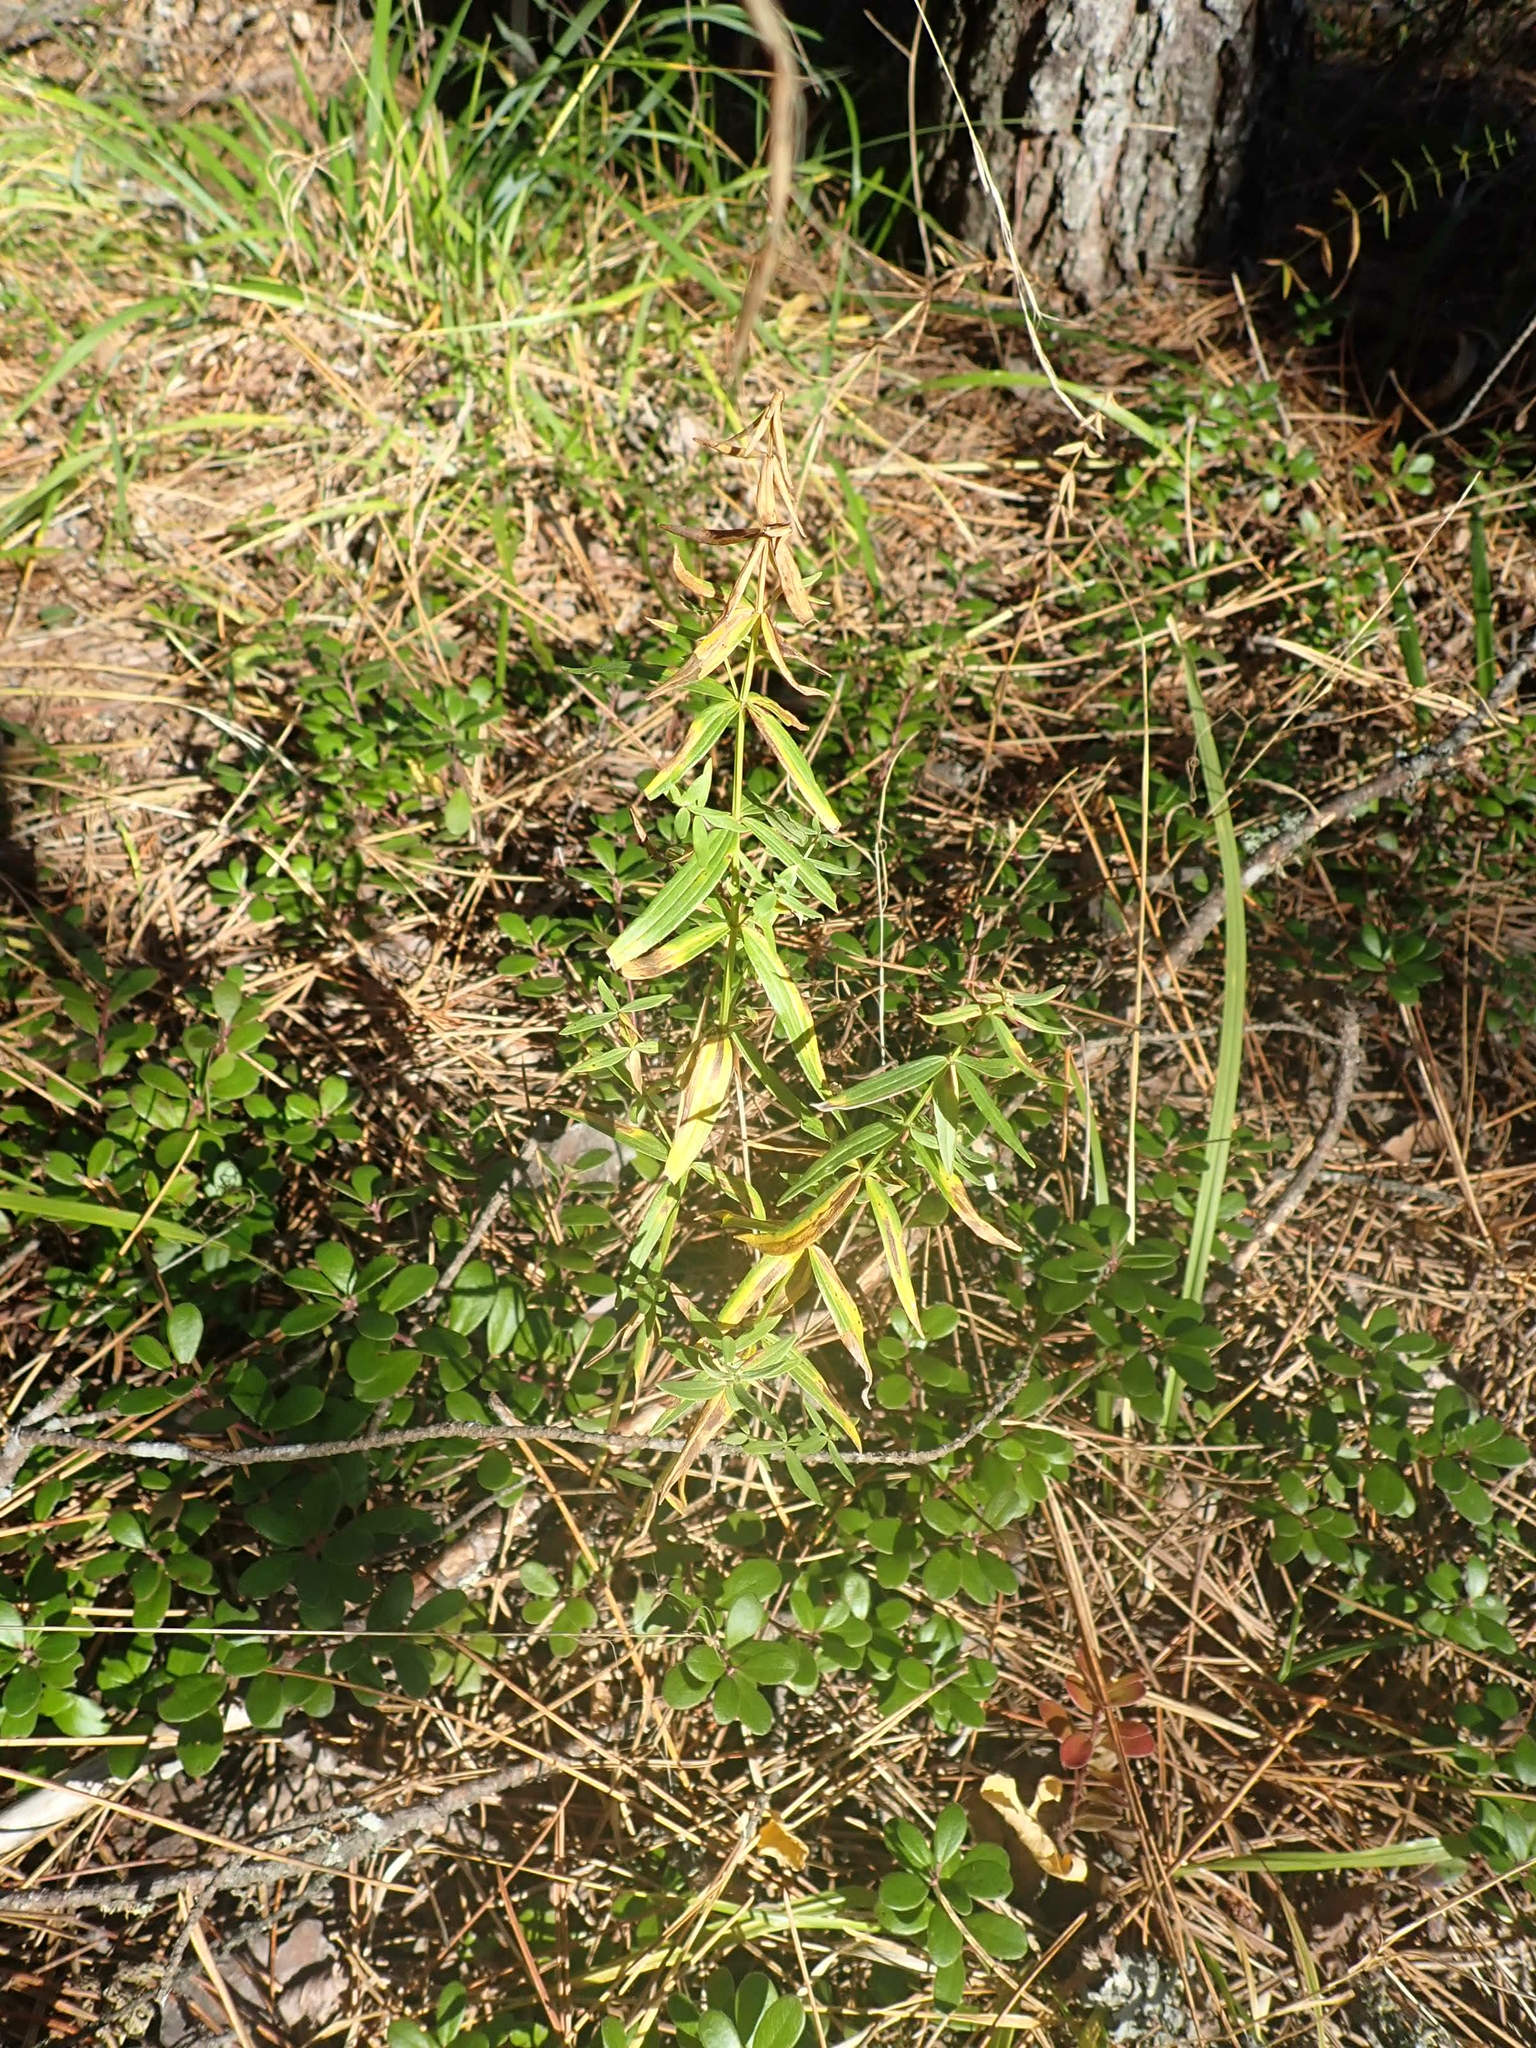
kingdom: Plantae
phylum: Tracheophyta
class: Magnoliopsida
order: Gentianales
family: Rubiaceae
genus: Galium
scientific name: Galium boreale
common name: Northern bedstraw
